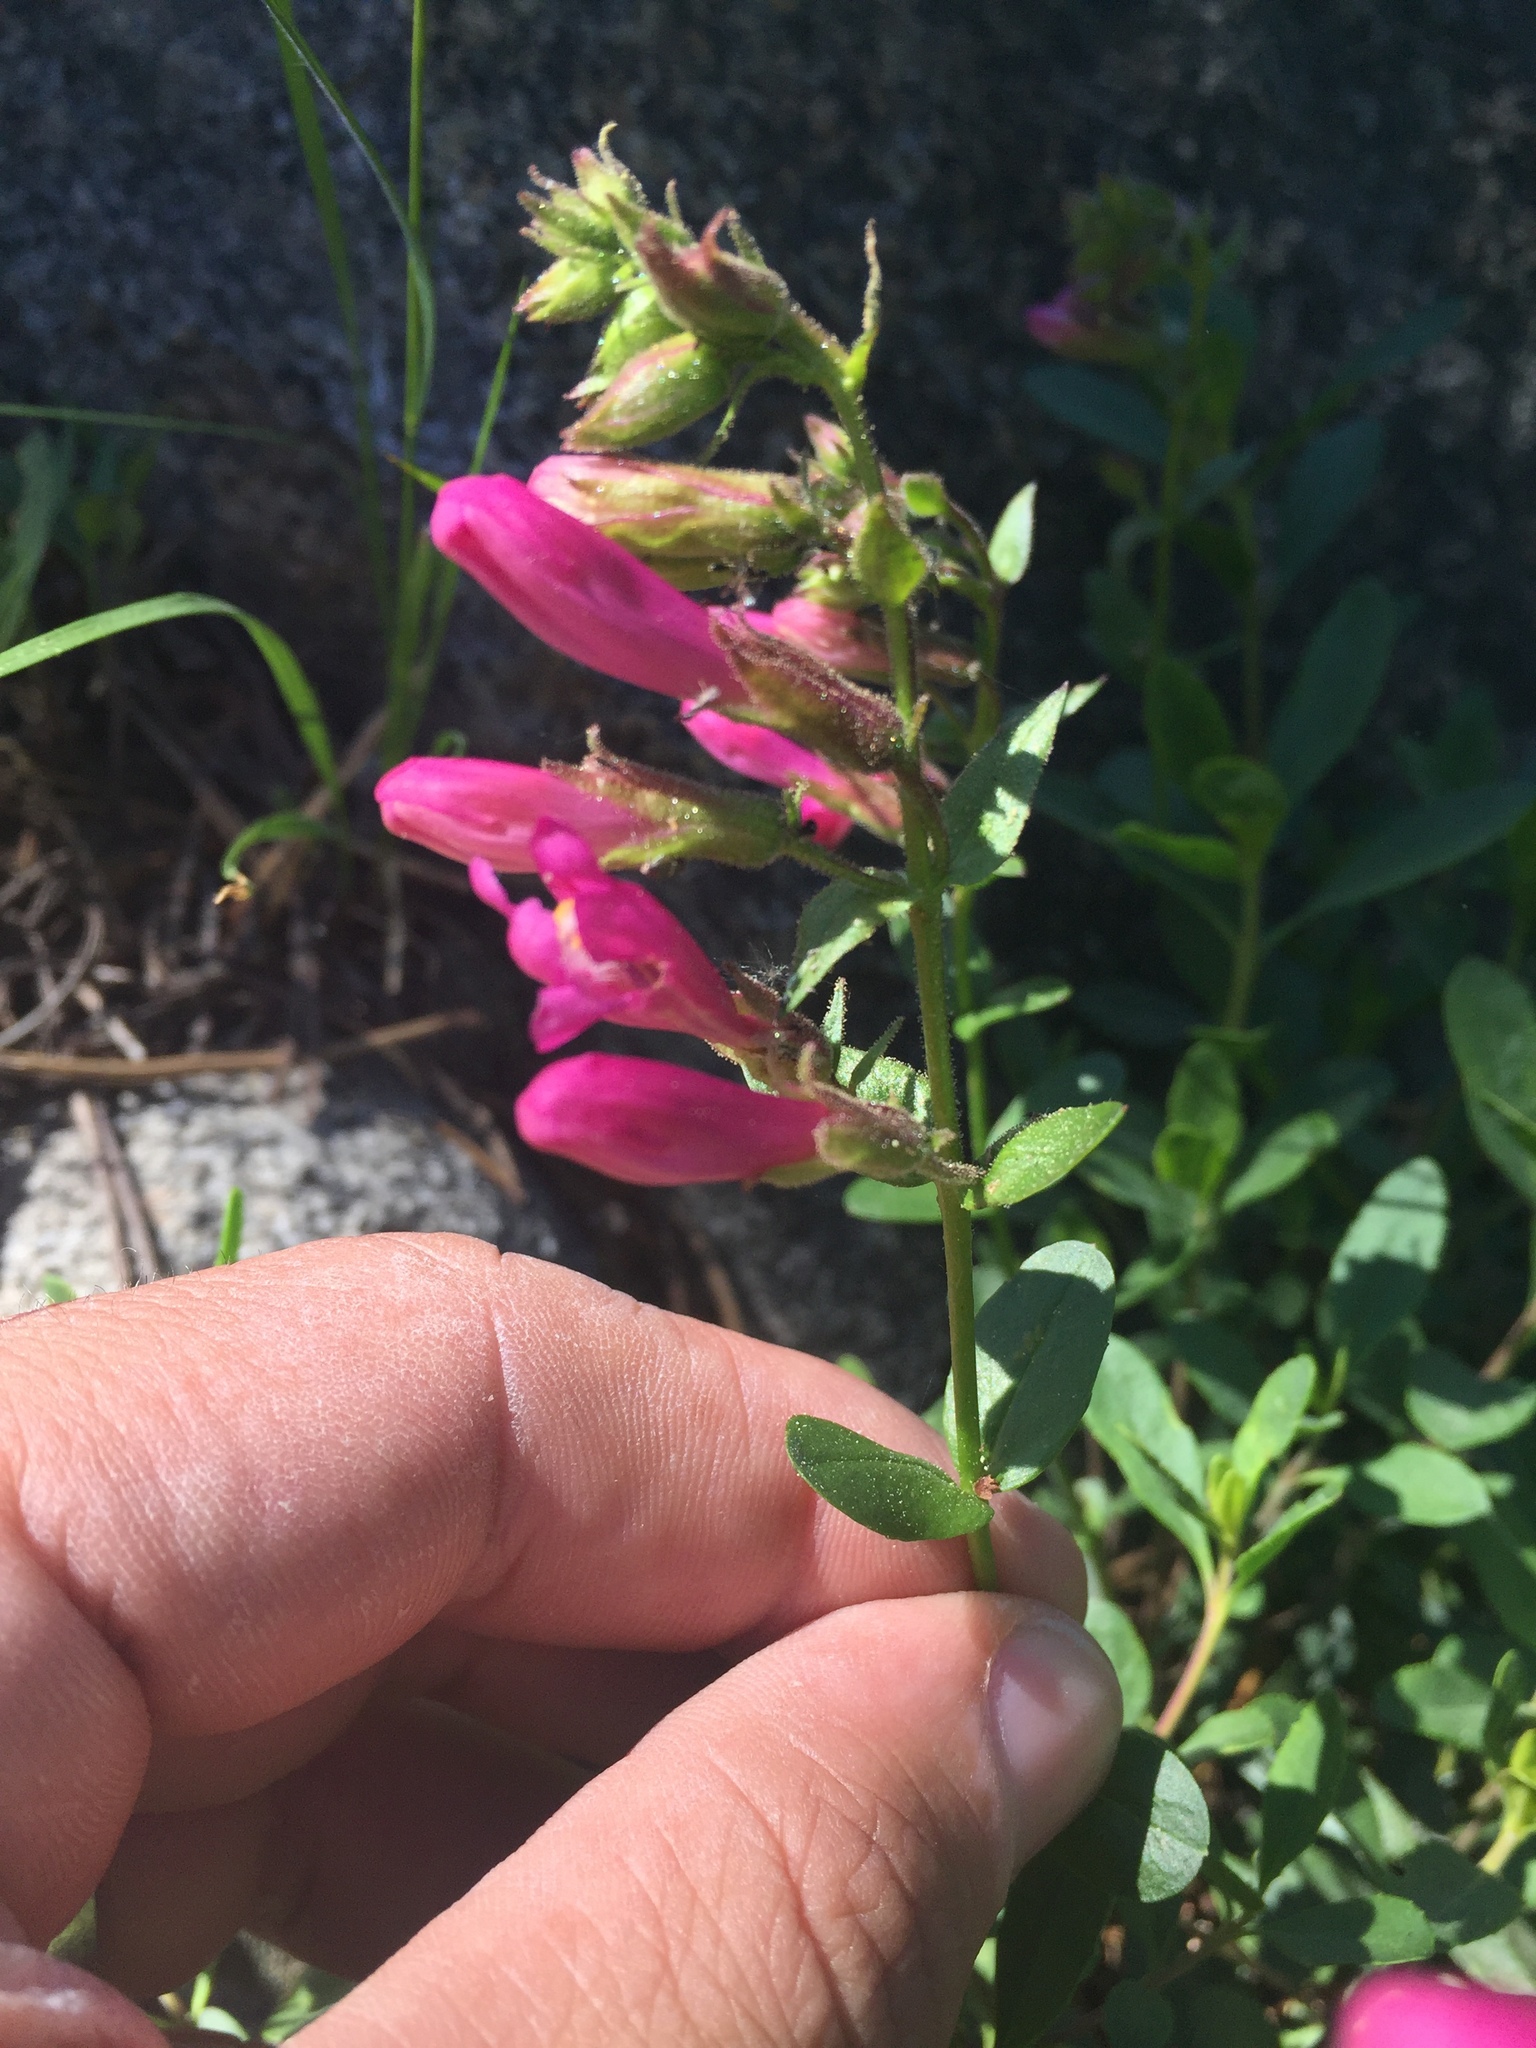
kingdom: Plantae
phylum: Tracheophyta
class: Magnoliopsida
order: Lamiales
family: Plantaginaceae
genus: Penstemon
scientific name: Penstemon newberryi
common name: Mountain-pride
